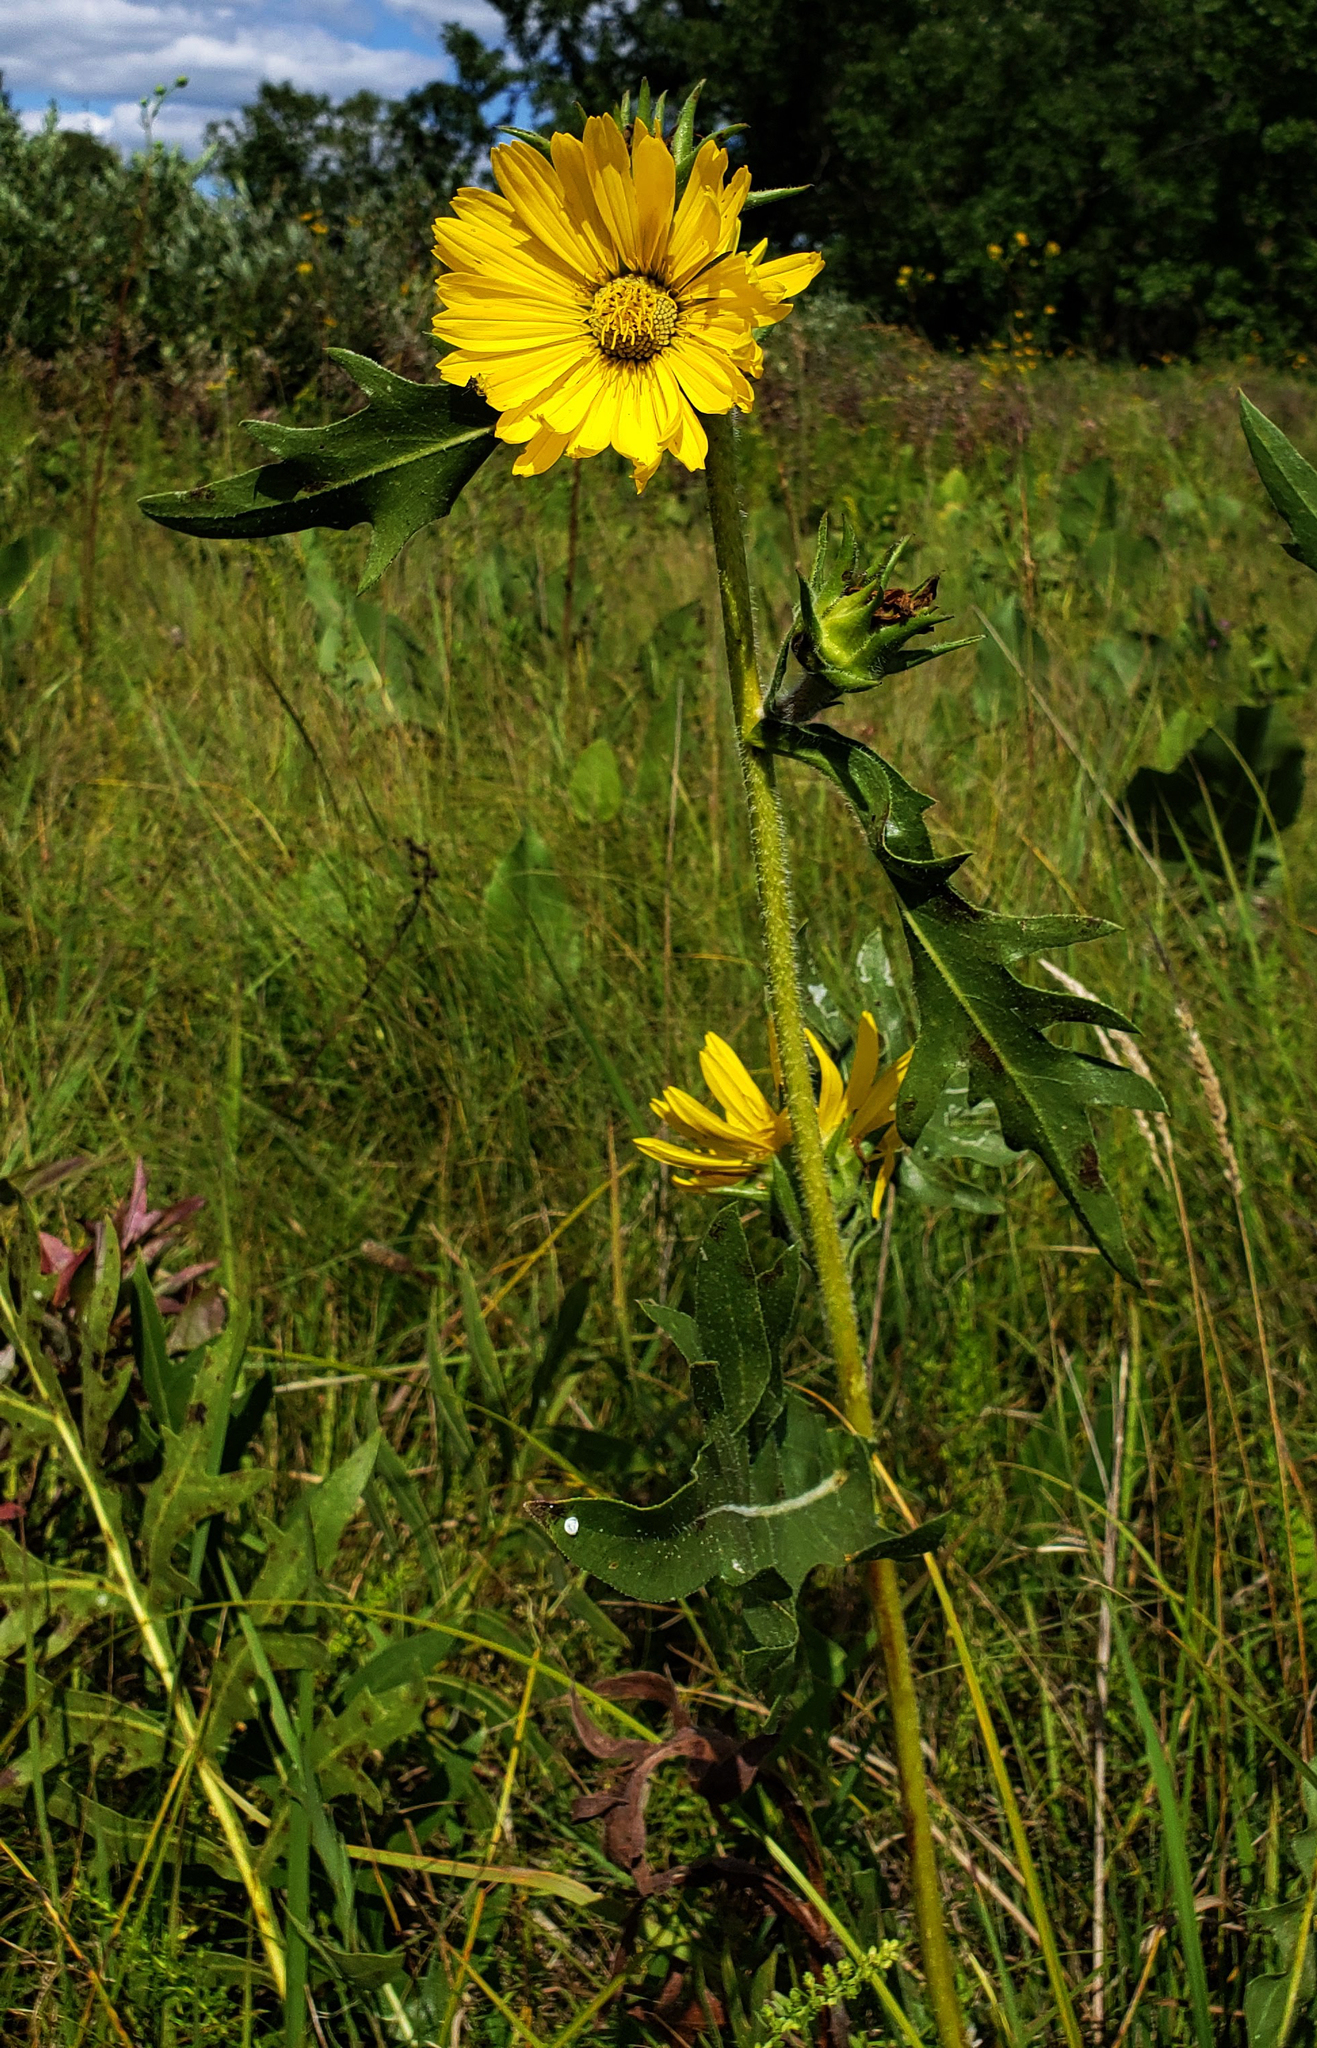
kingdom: Plantae
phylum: Tracheophyta
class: Magnoliopsida
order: Asterales
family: Asteraceae
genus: Silphium
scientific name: Silphium laciniatum
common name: Polarplant
